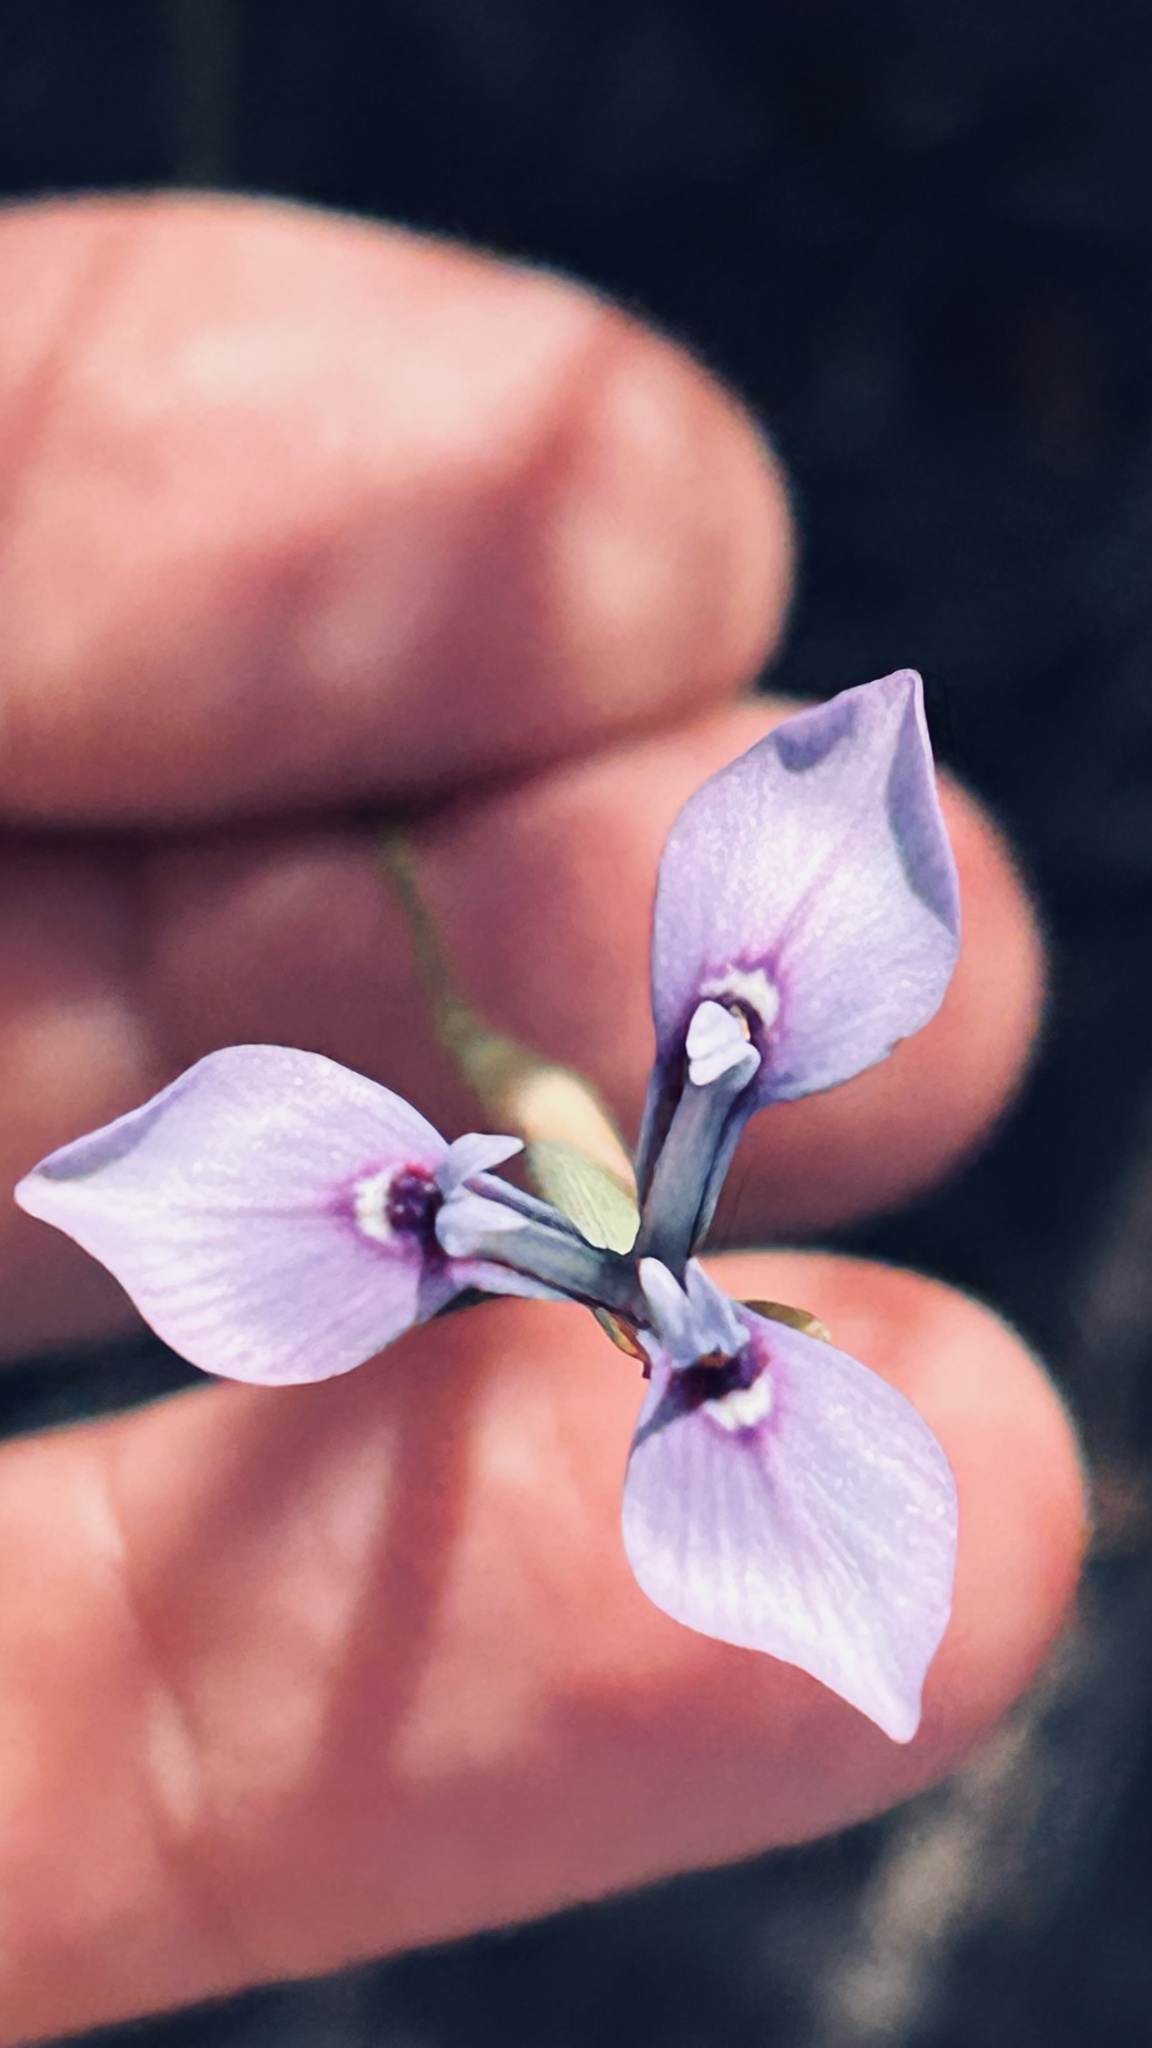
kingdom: Plantae
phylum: Tracheophyta
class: Liliopsida
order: Asparagales
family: Iridaceae
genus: Moraea
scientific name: Moraea tripetala
